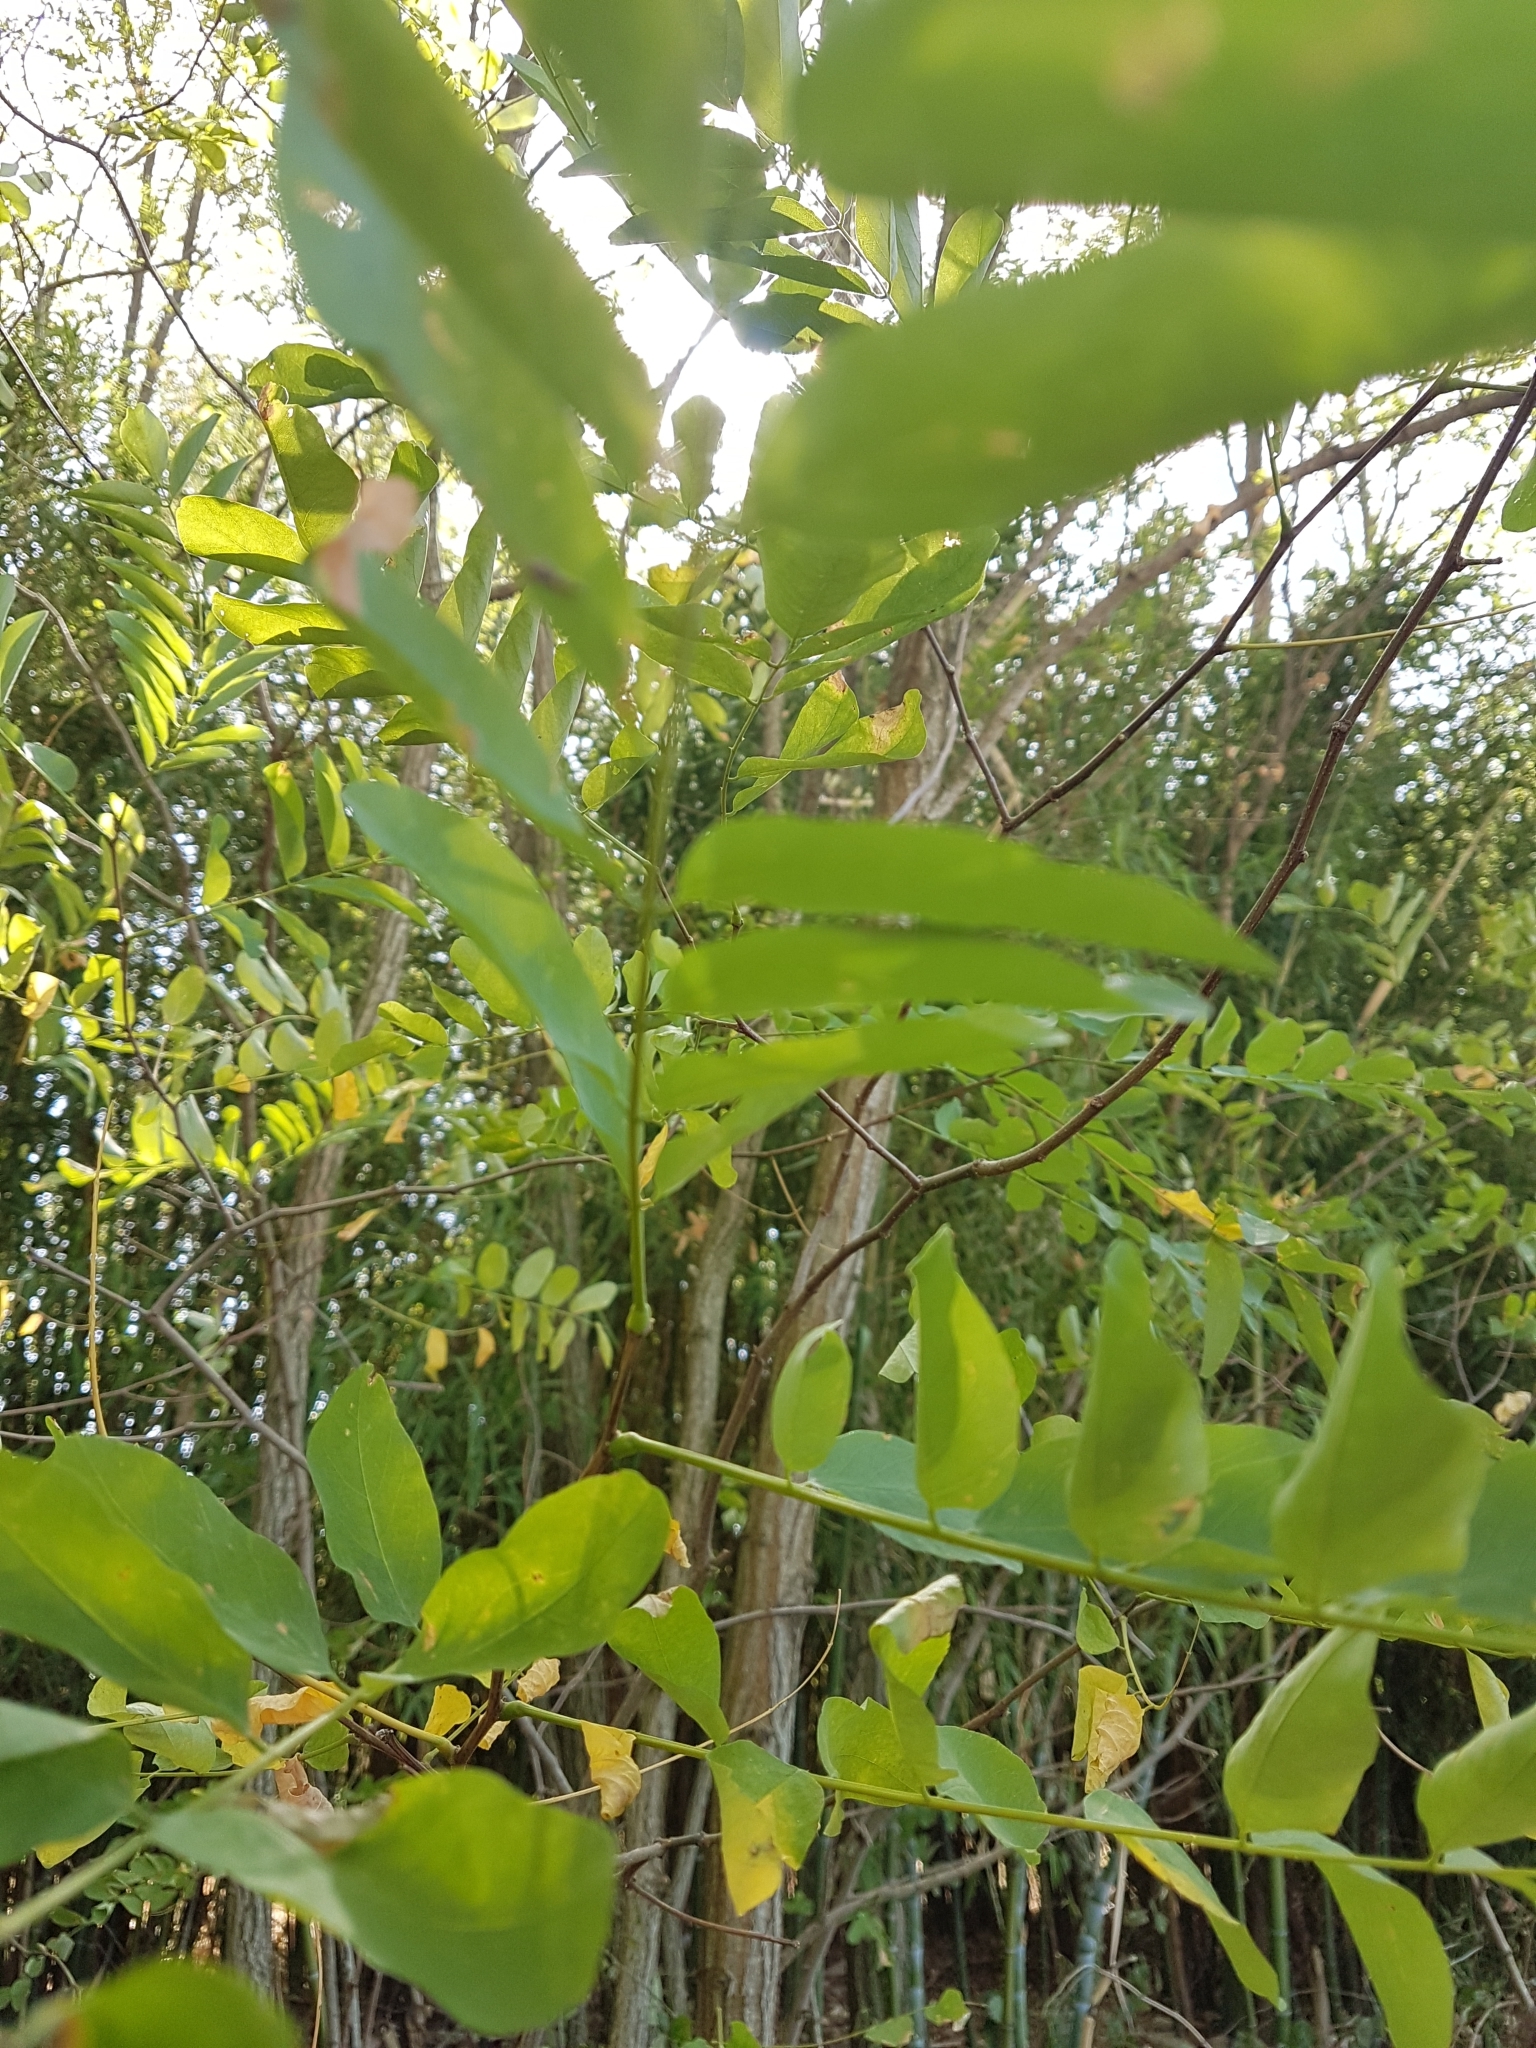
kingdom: Plantae
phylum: Tracheophyta
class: Magnoliopsida
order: Fabales
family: Fabaceae
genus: Robinia
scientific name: Robinia pseudoacacia
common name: Black locust
